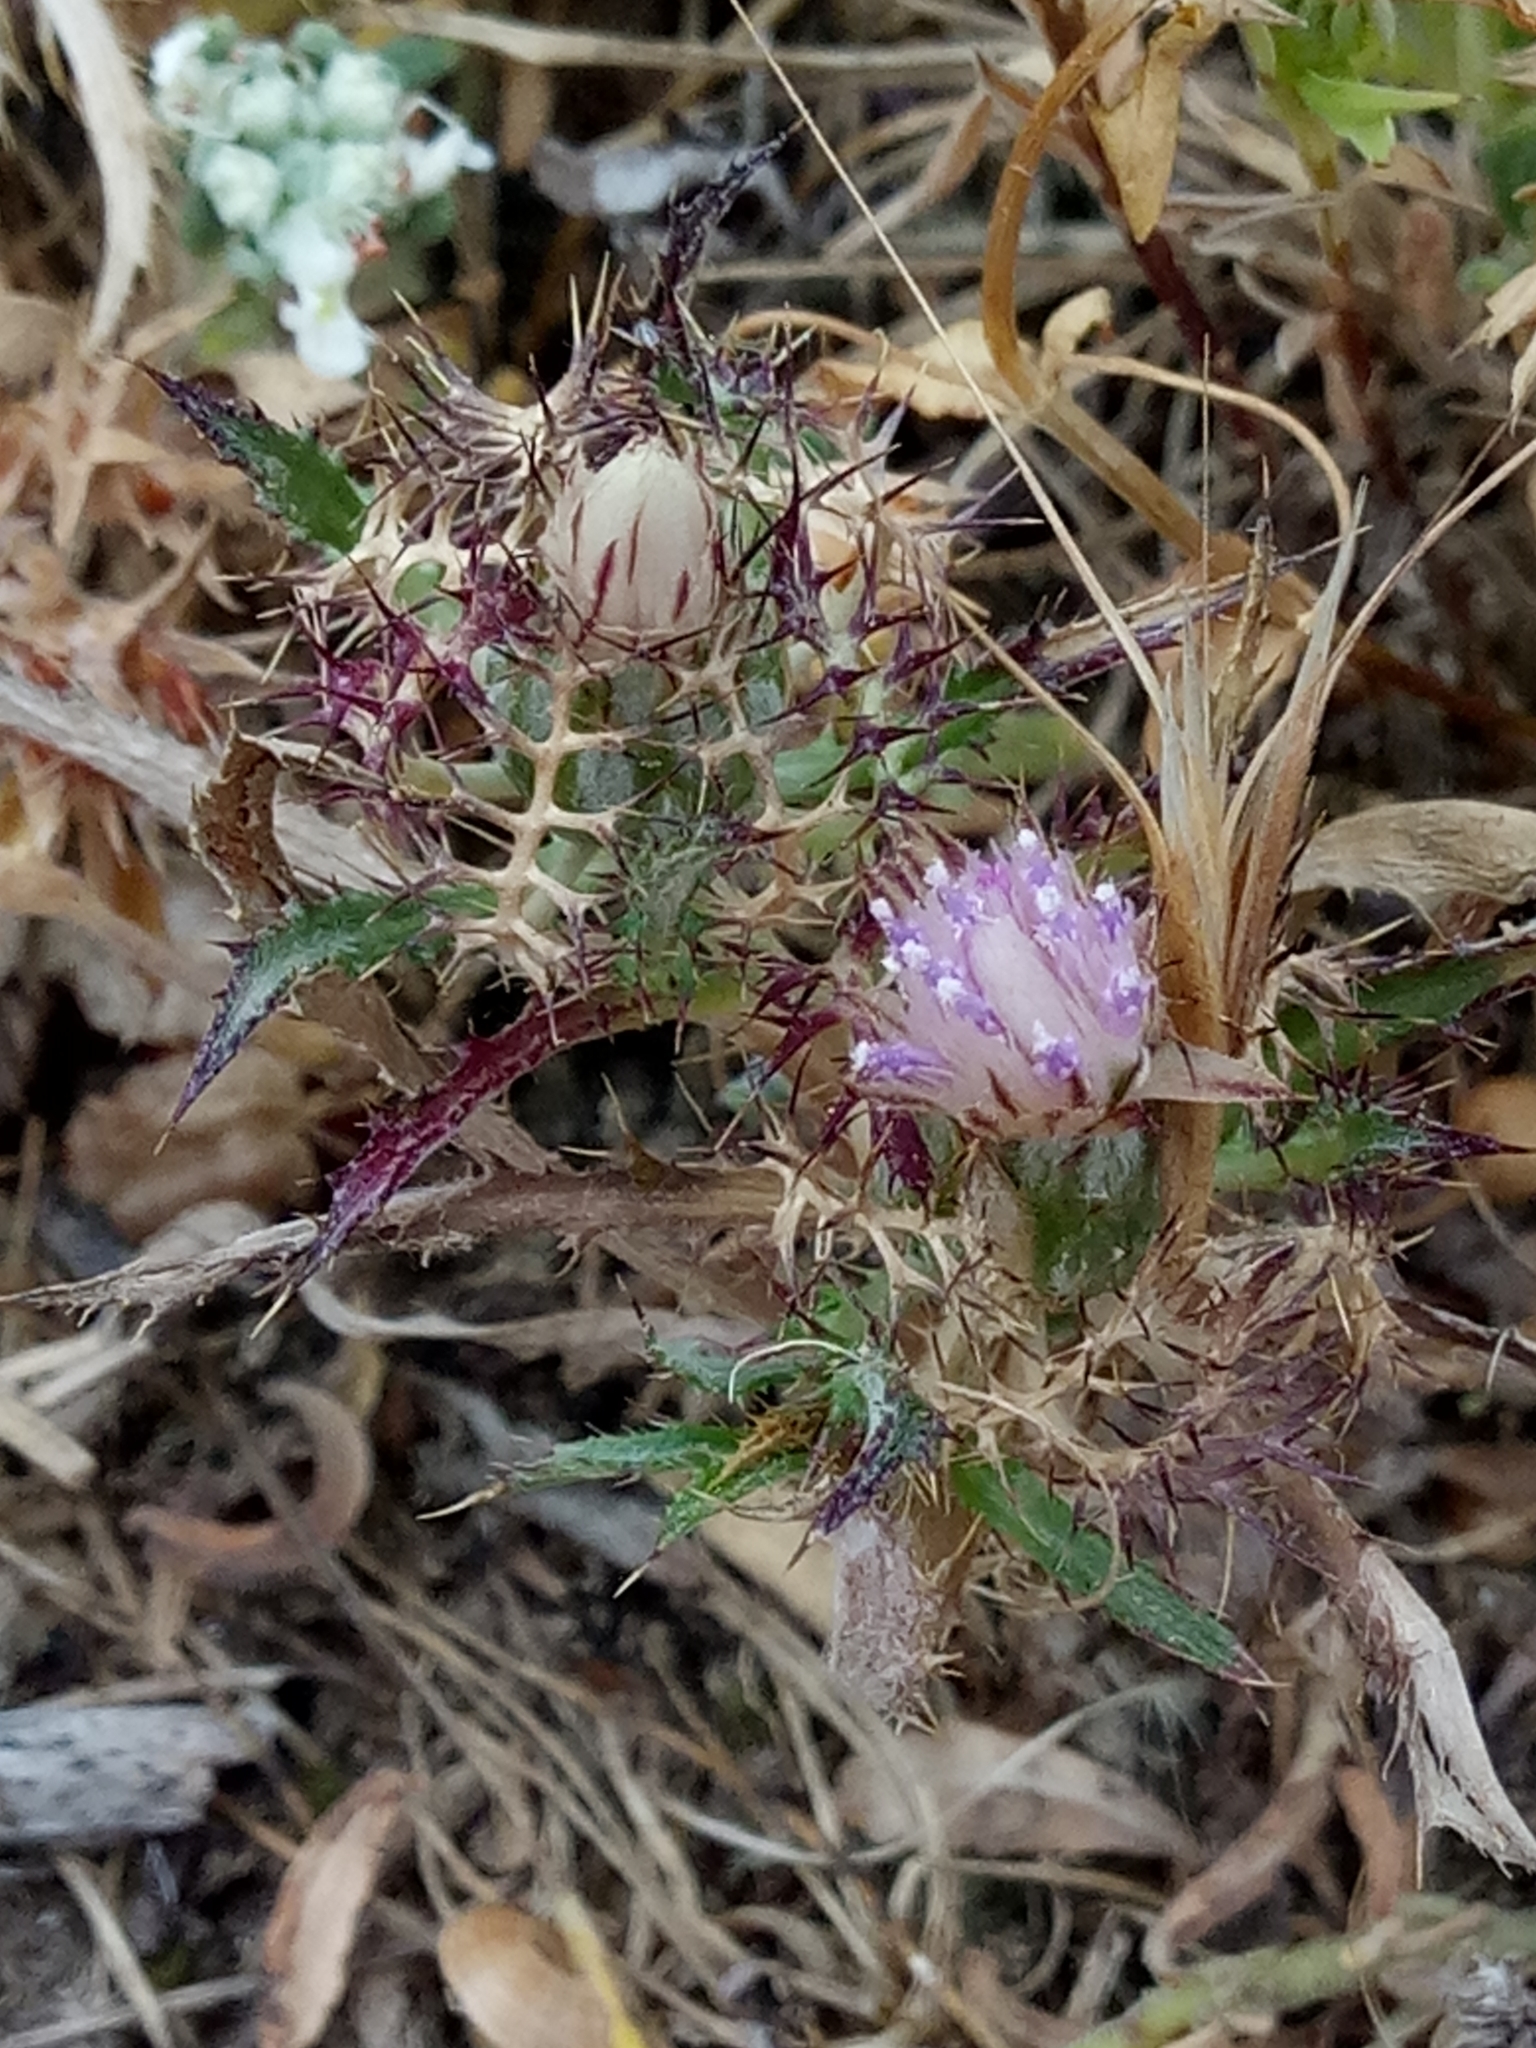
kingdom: Plantae
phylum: Tracheophyta
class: Magnoliopsida
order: Asterales
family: Asteraceae
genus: Atractylis
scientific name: Atractylis cancellata
